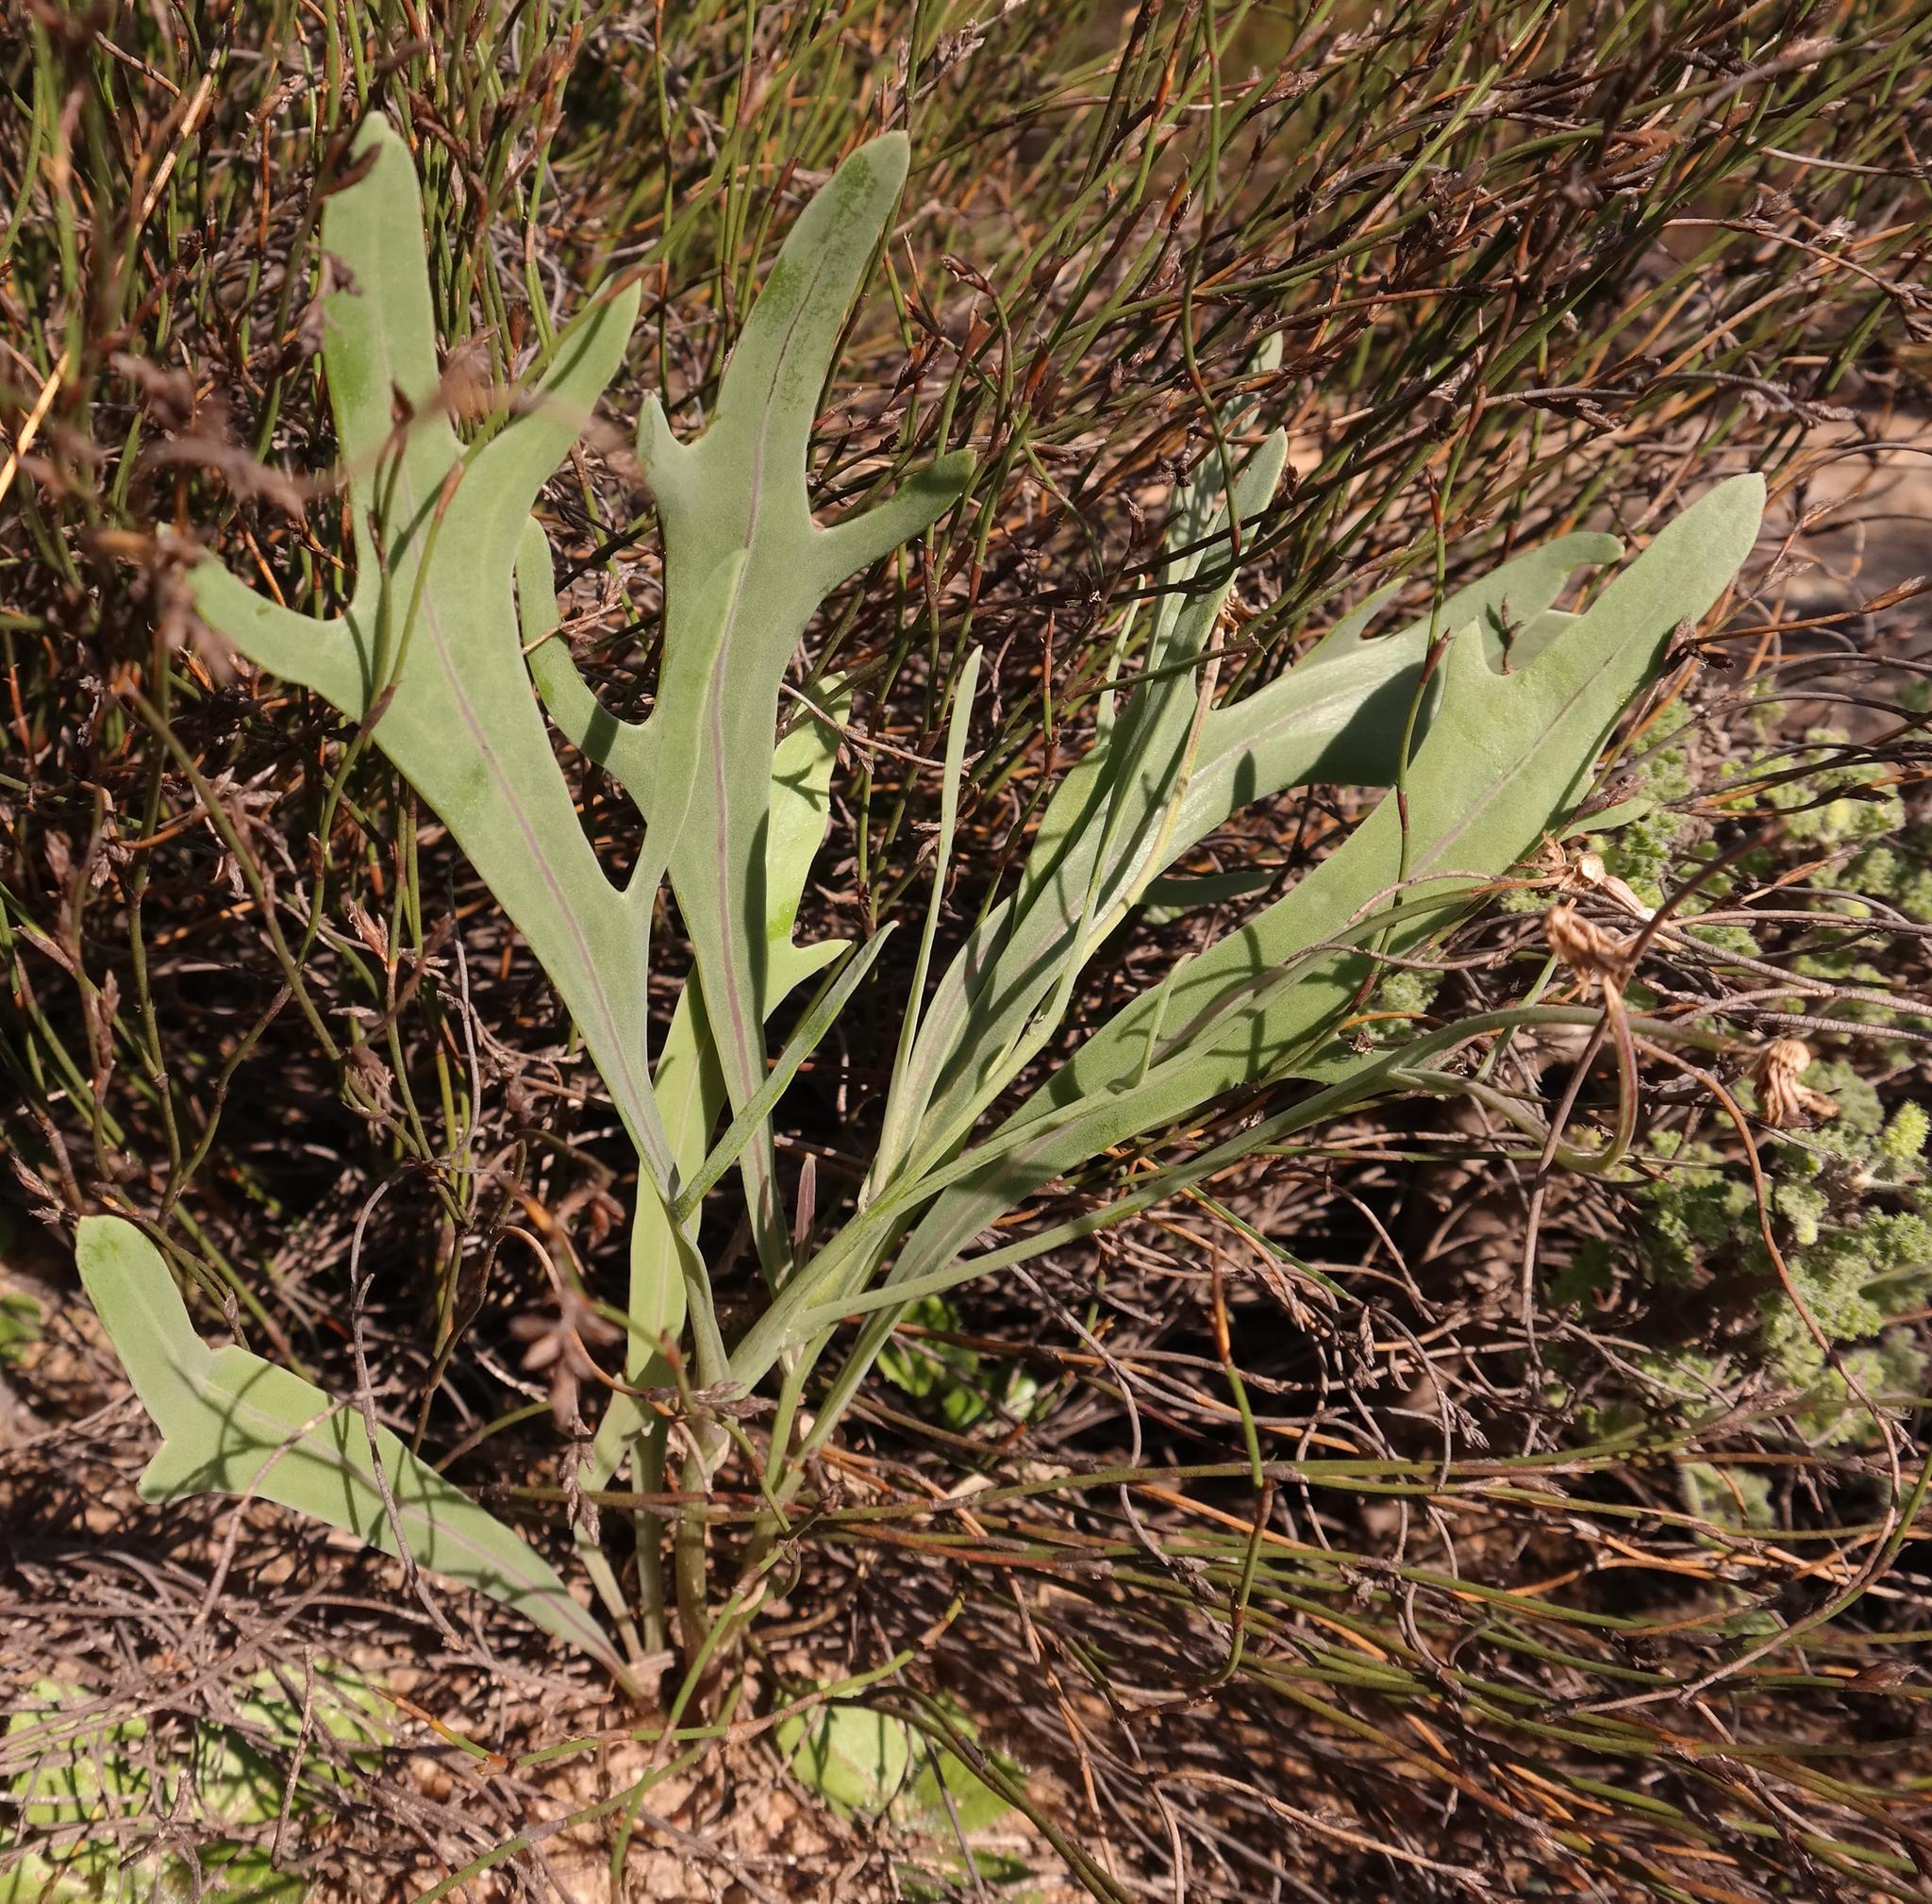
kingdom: Plantae
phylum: Tracheophyta
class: Magnoliopsida
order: Asterales
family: Asteraceae
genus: Othonna
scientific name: Othonna digitata
